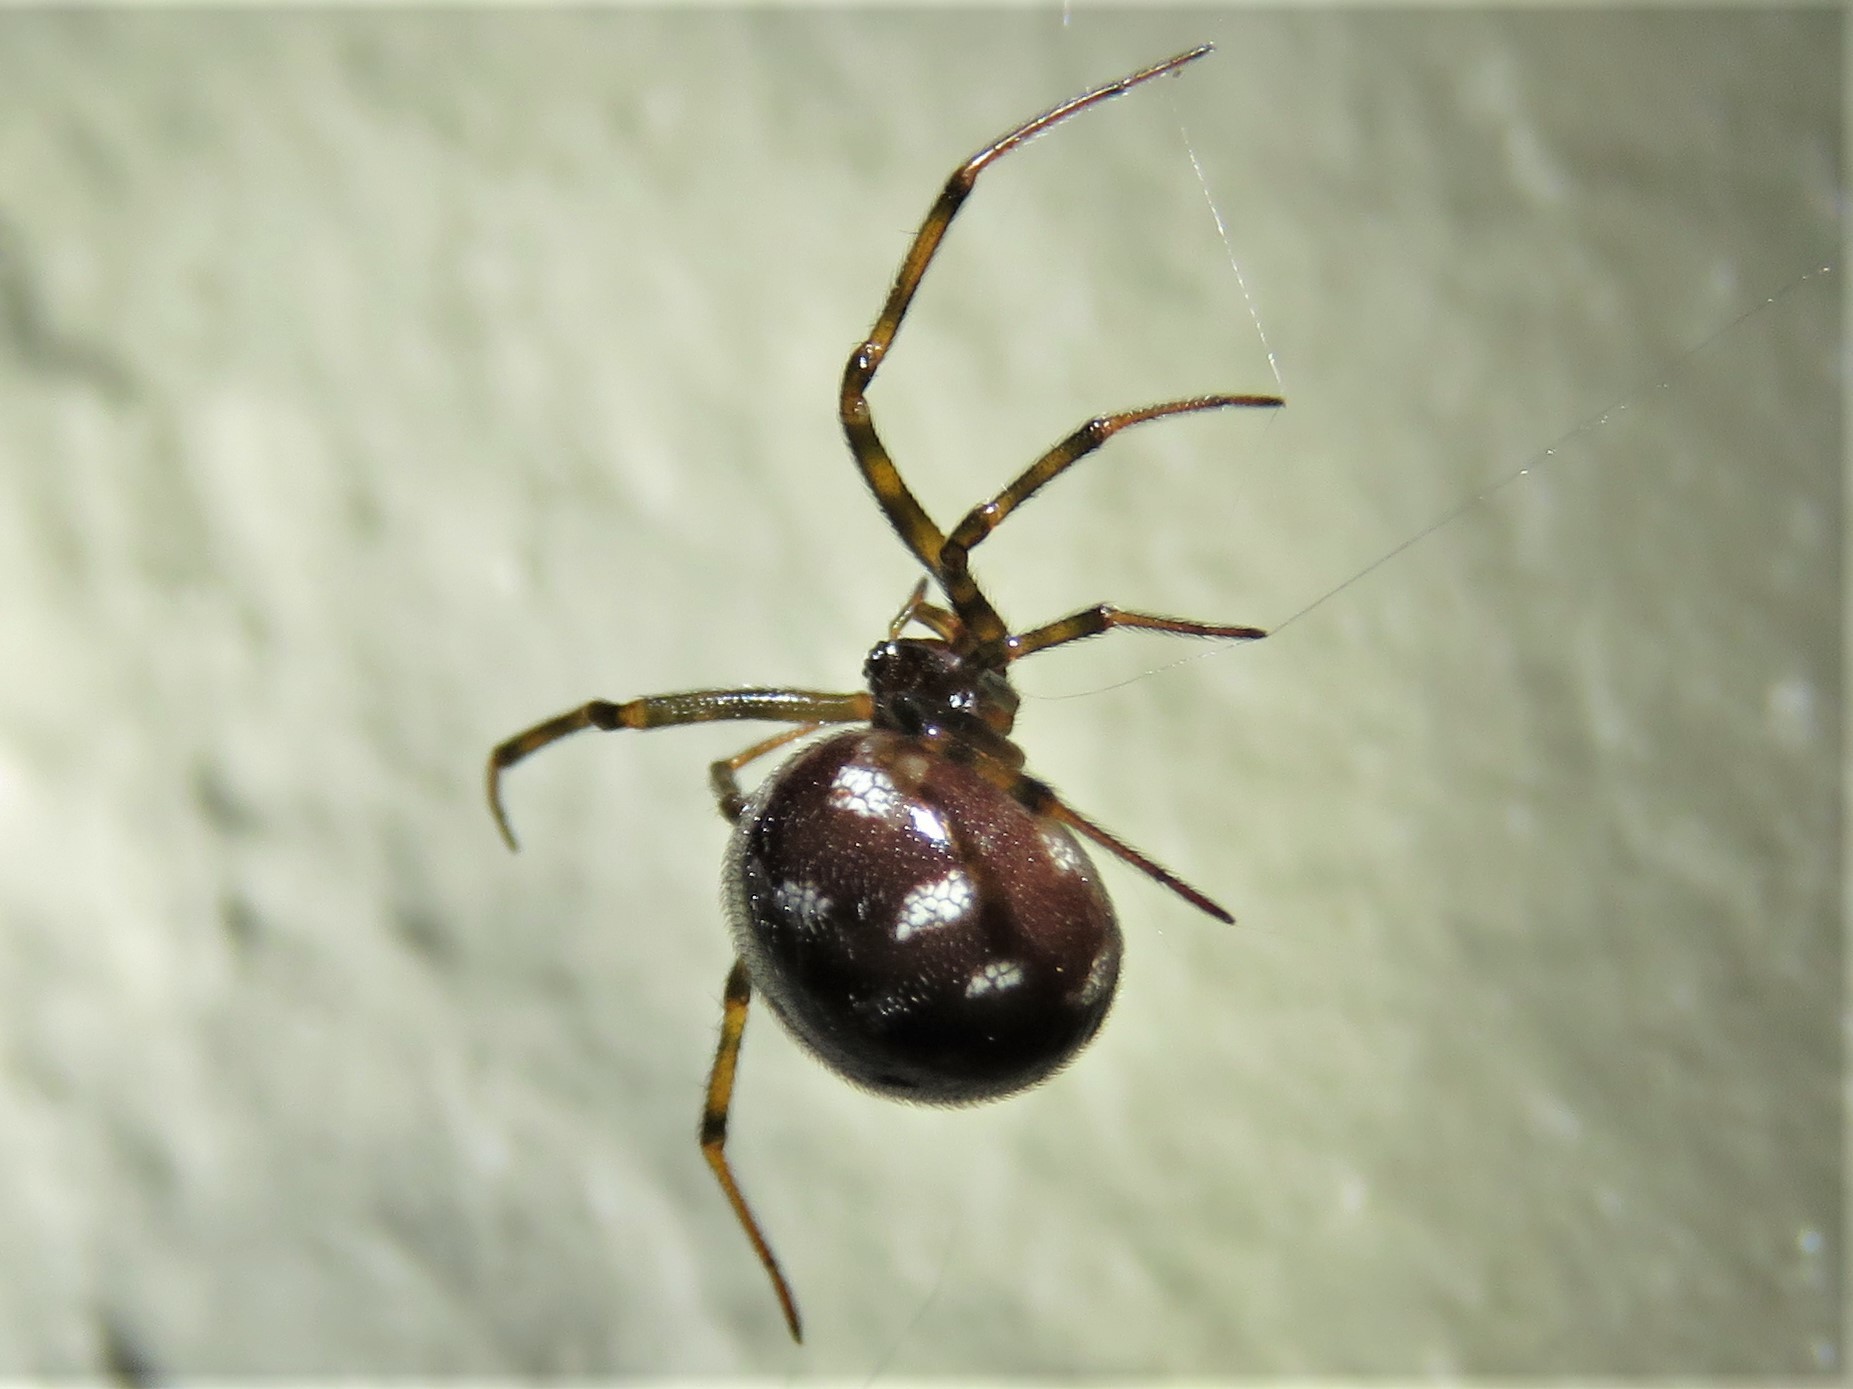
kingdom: Animalia
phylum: Arthropoda
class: Arachnida
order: Araneae
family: Theridiidae
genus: Steatoda
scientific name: Steatoda triangulosa
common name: Triangulate bud spider
